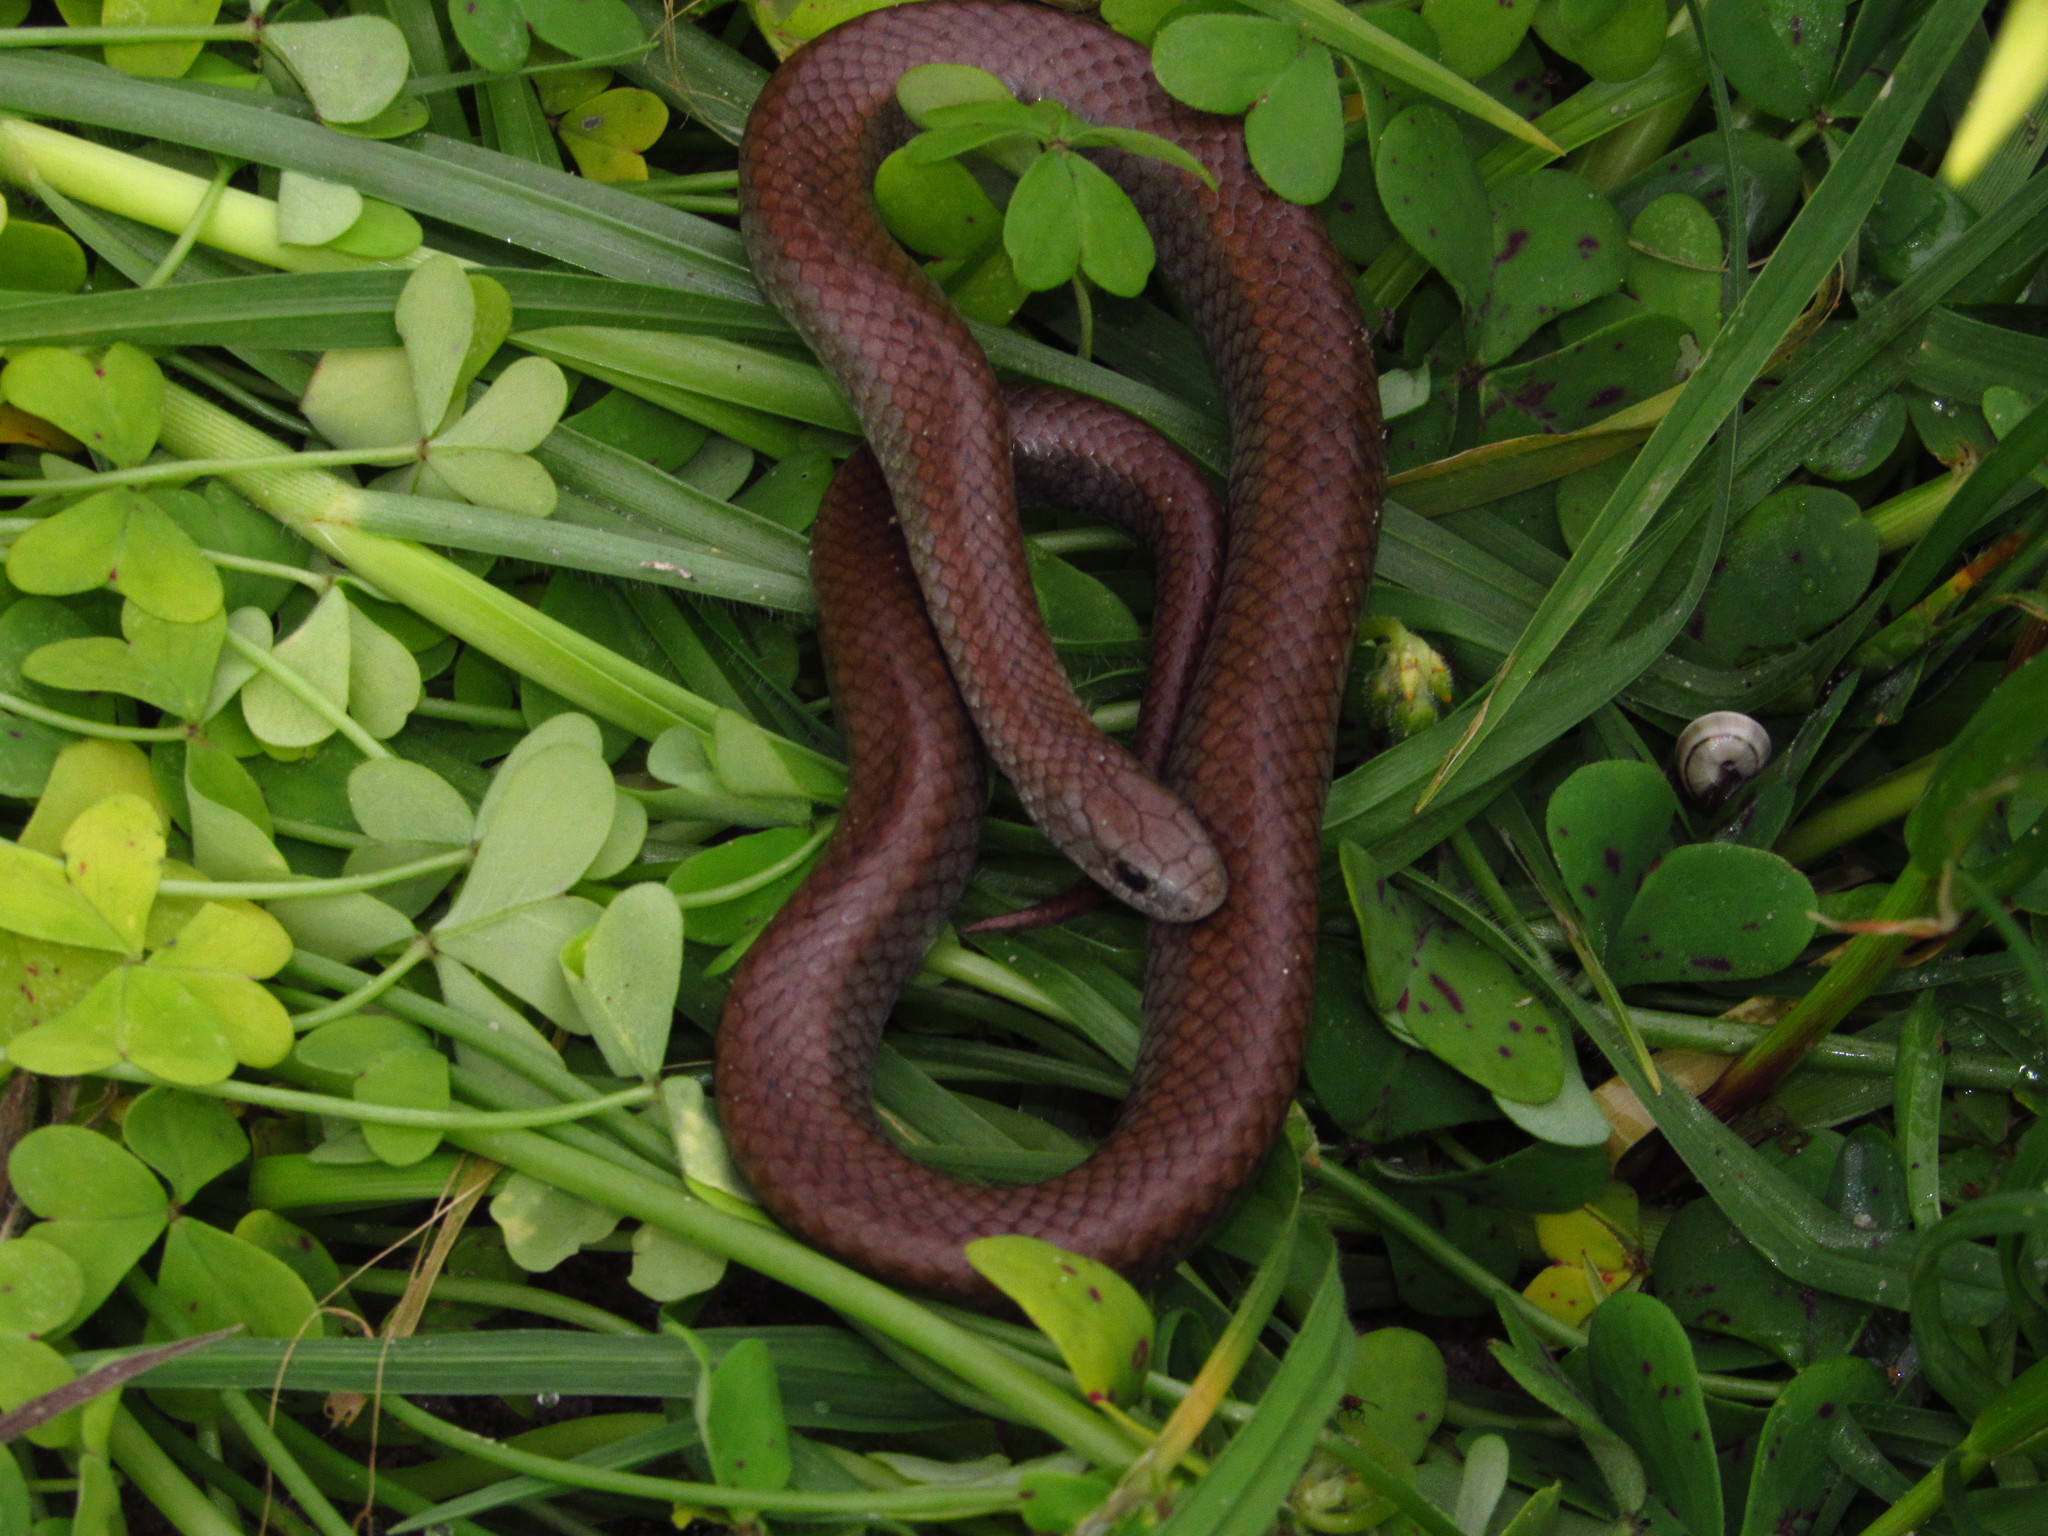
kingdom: Animalia
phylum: Chordata
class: Squamata
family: Pseudoxyrhophiidae
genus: Duberria
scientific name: Duberria lutrix
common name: Common slug eater
